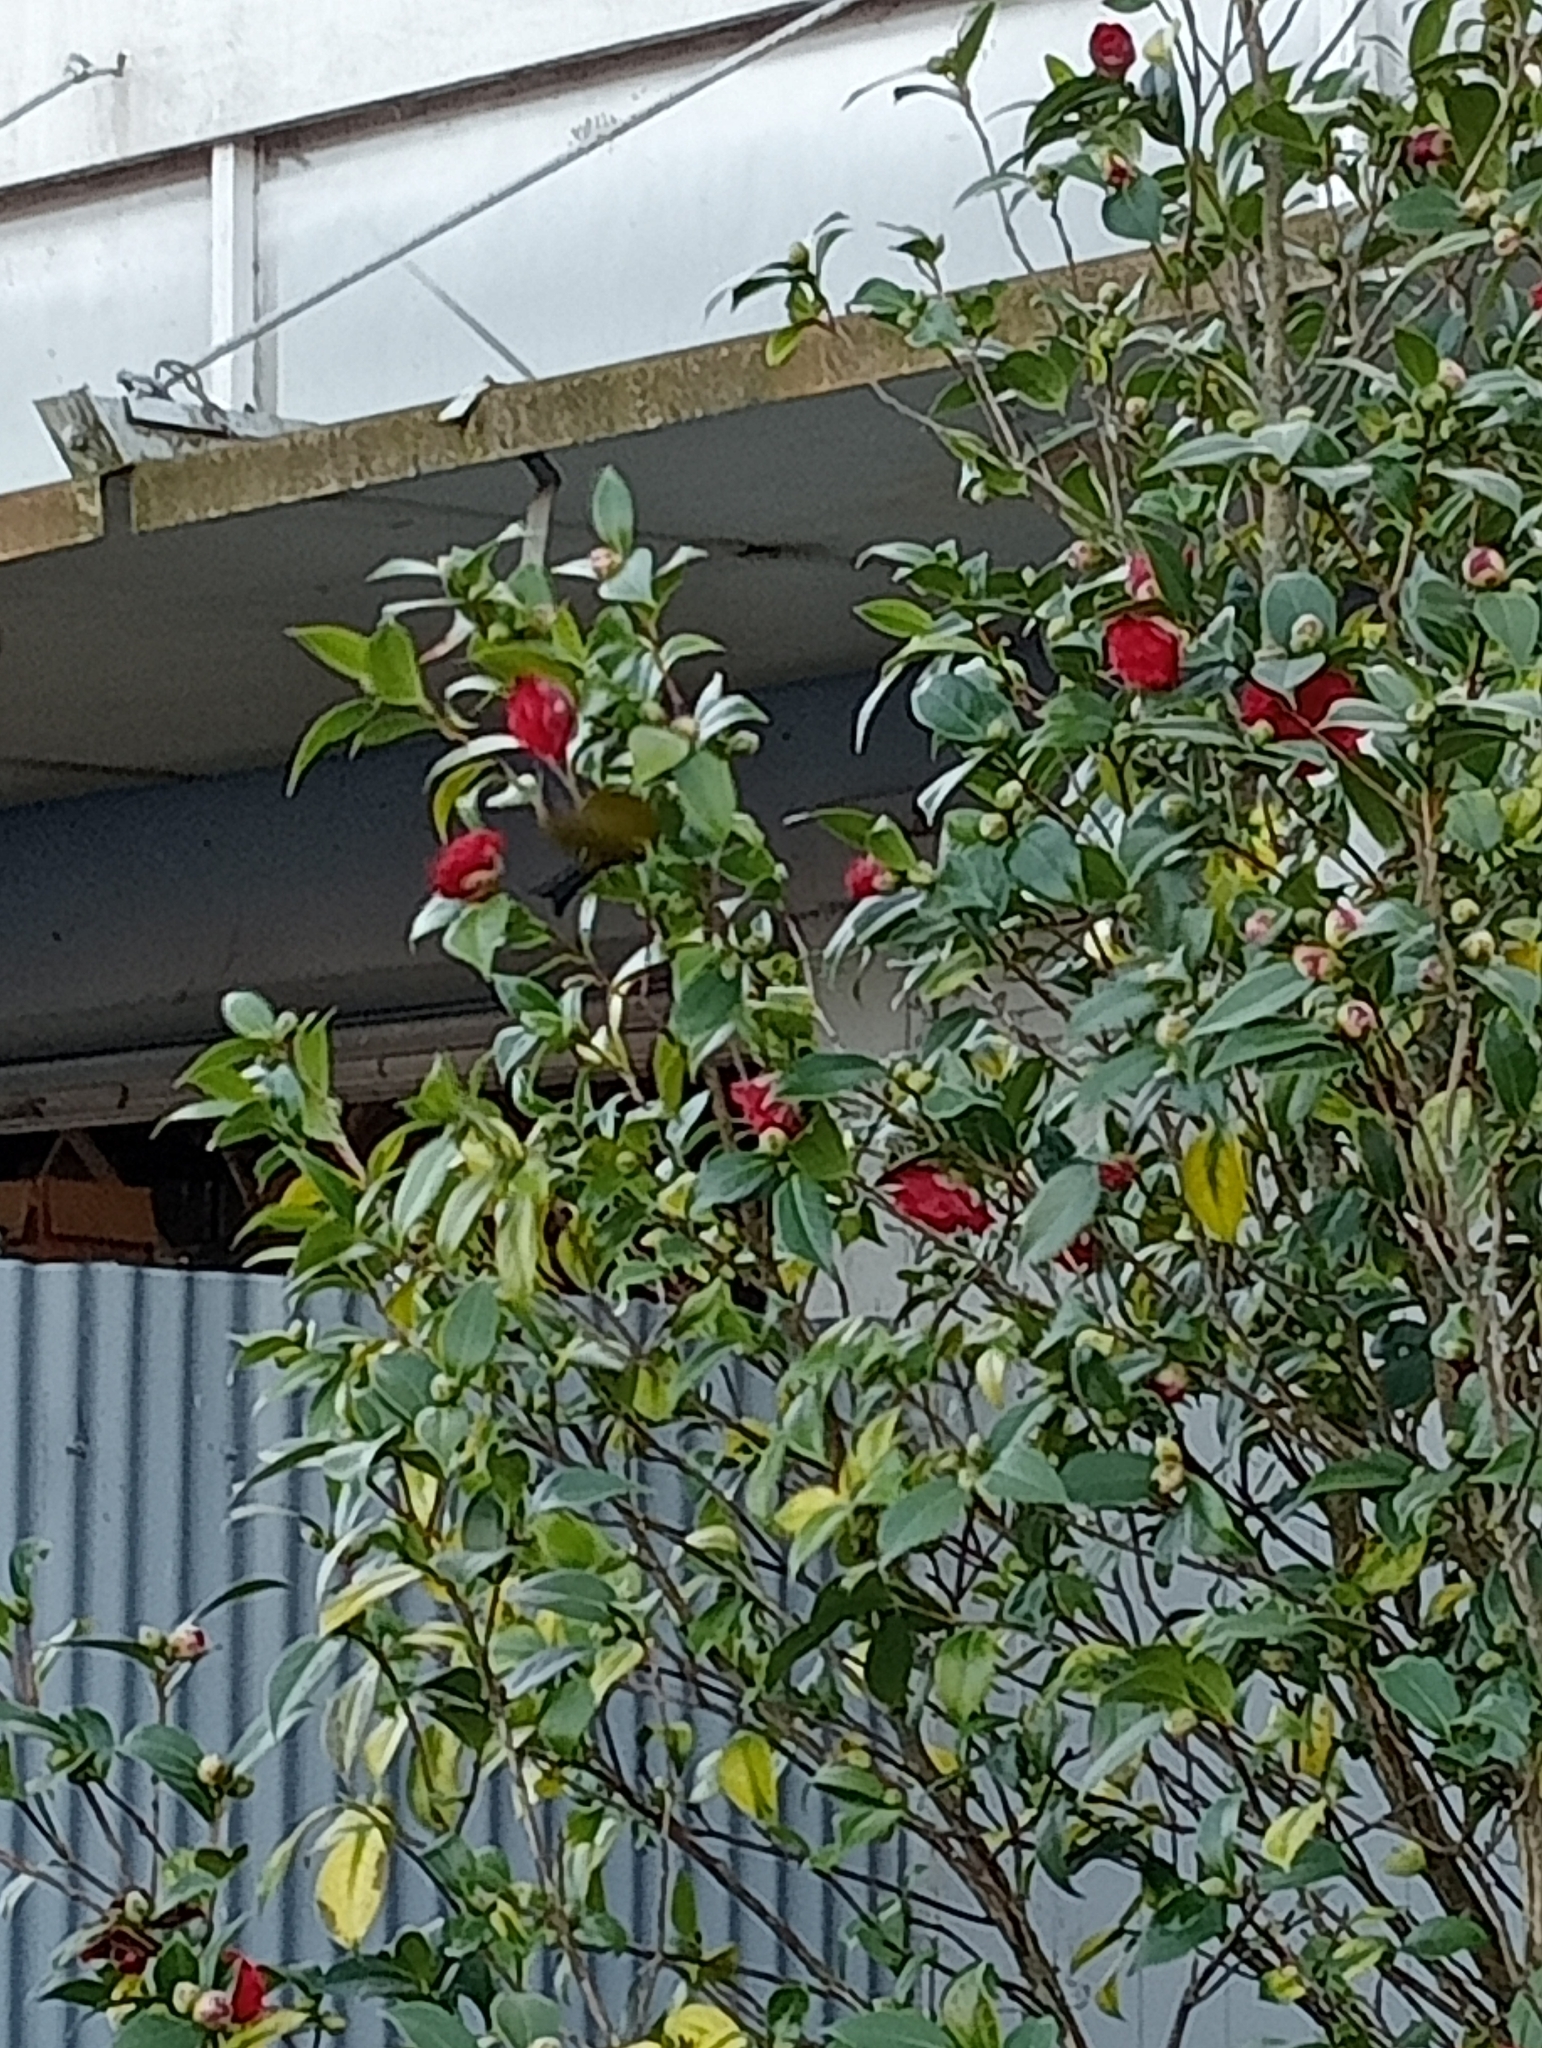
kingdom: Animalia
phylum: Chordata
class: Aves
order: Passeriformes
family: Meliphagidae
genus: Anthornis
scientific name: Anthornis melanura
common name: New zealand bellbird
